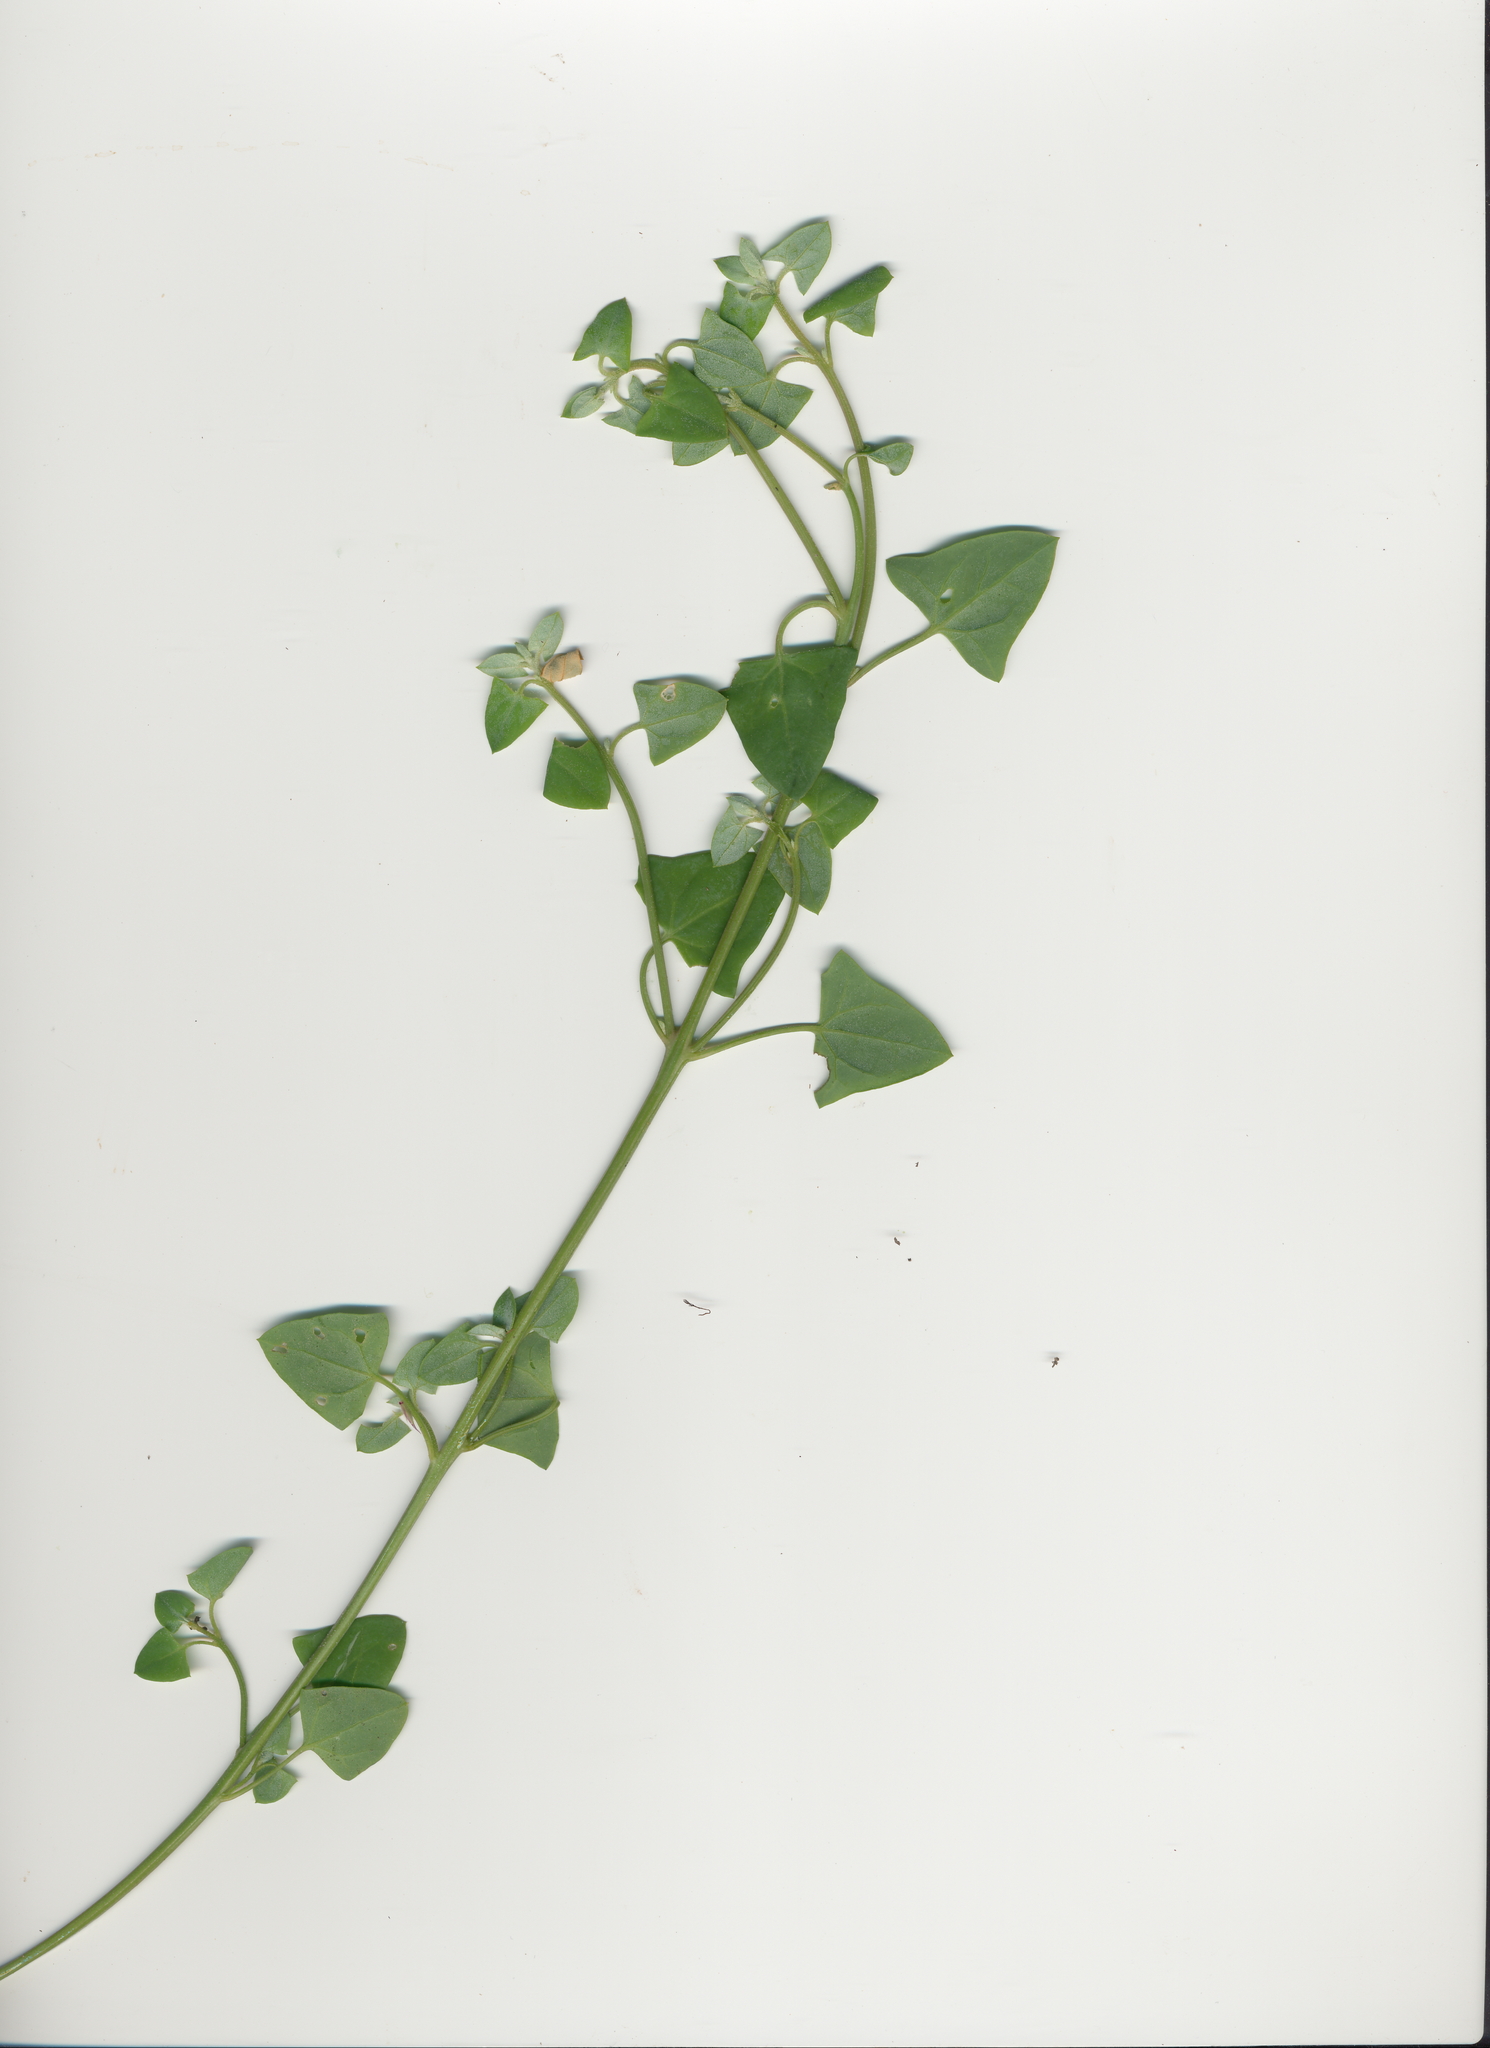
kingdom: Plantae
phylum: Tracheophyta
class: Magnoliopsida
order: Caryophyllales
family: Amaranthaceae
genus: Chenopodium
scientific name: Chenopodium trigonon
